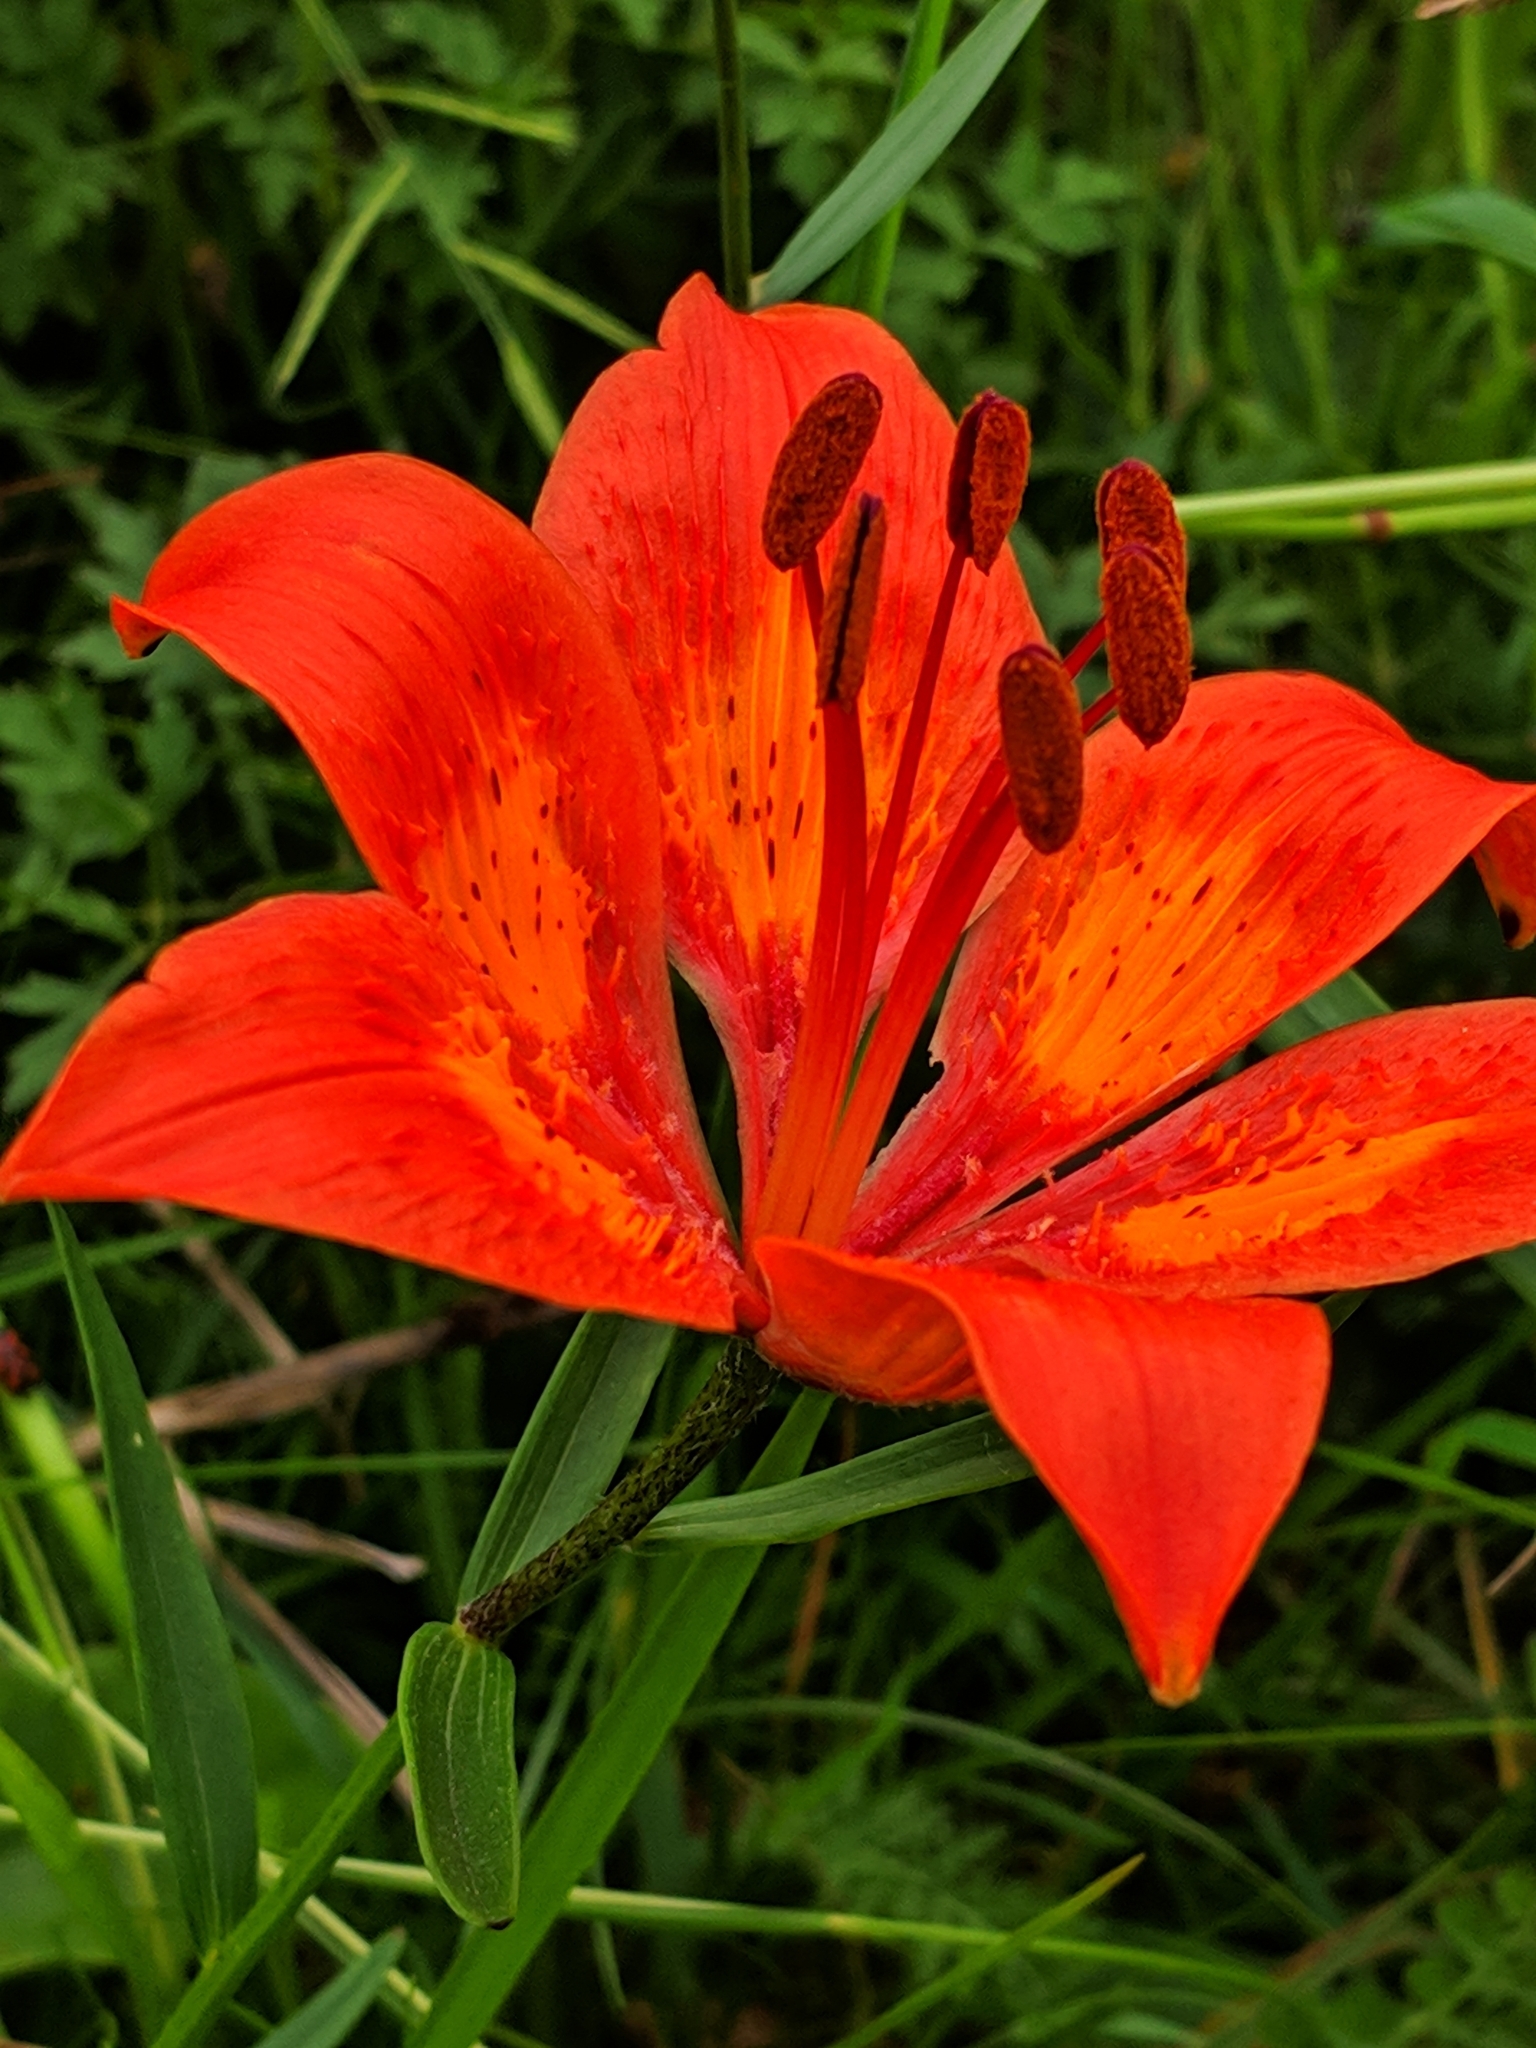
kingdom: Plantae
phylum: Tracheophyta
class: Liliopsida
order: Liliales
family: Liliaceae
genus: Lilium
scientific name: Lilium bulbiferum
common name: Orange lily
